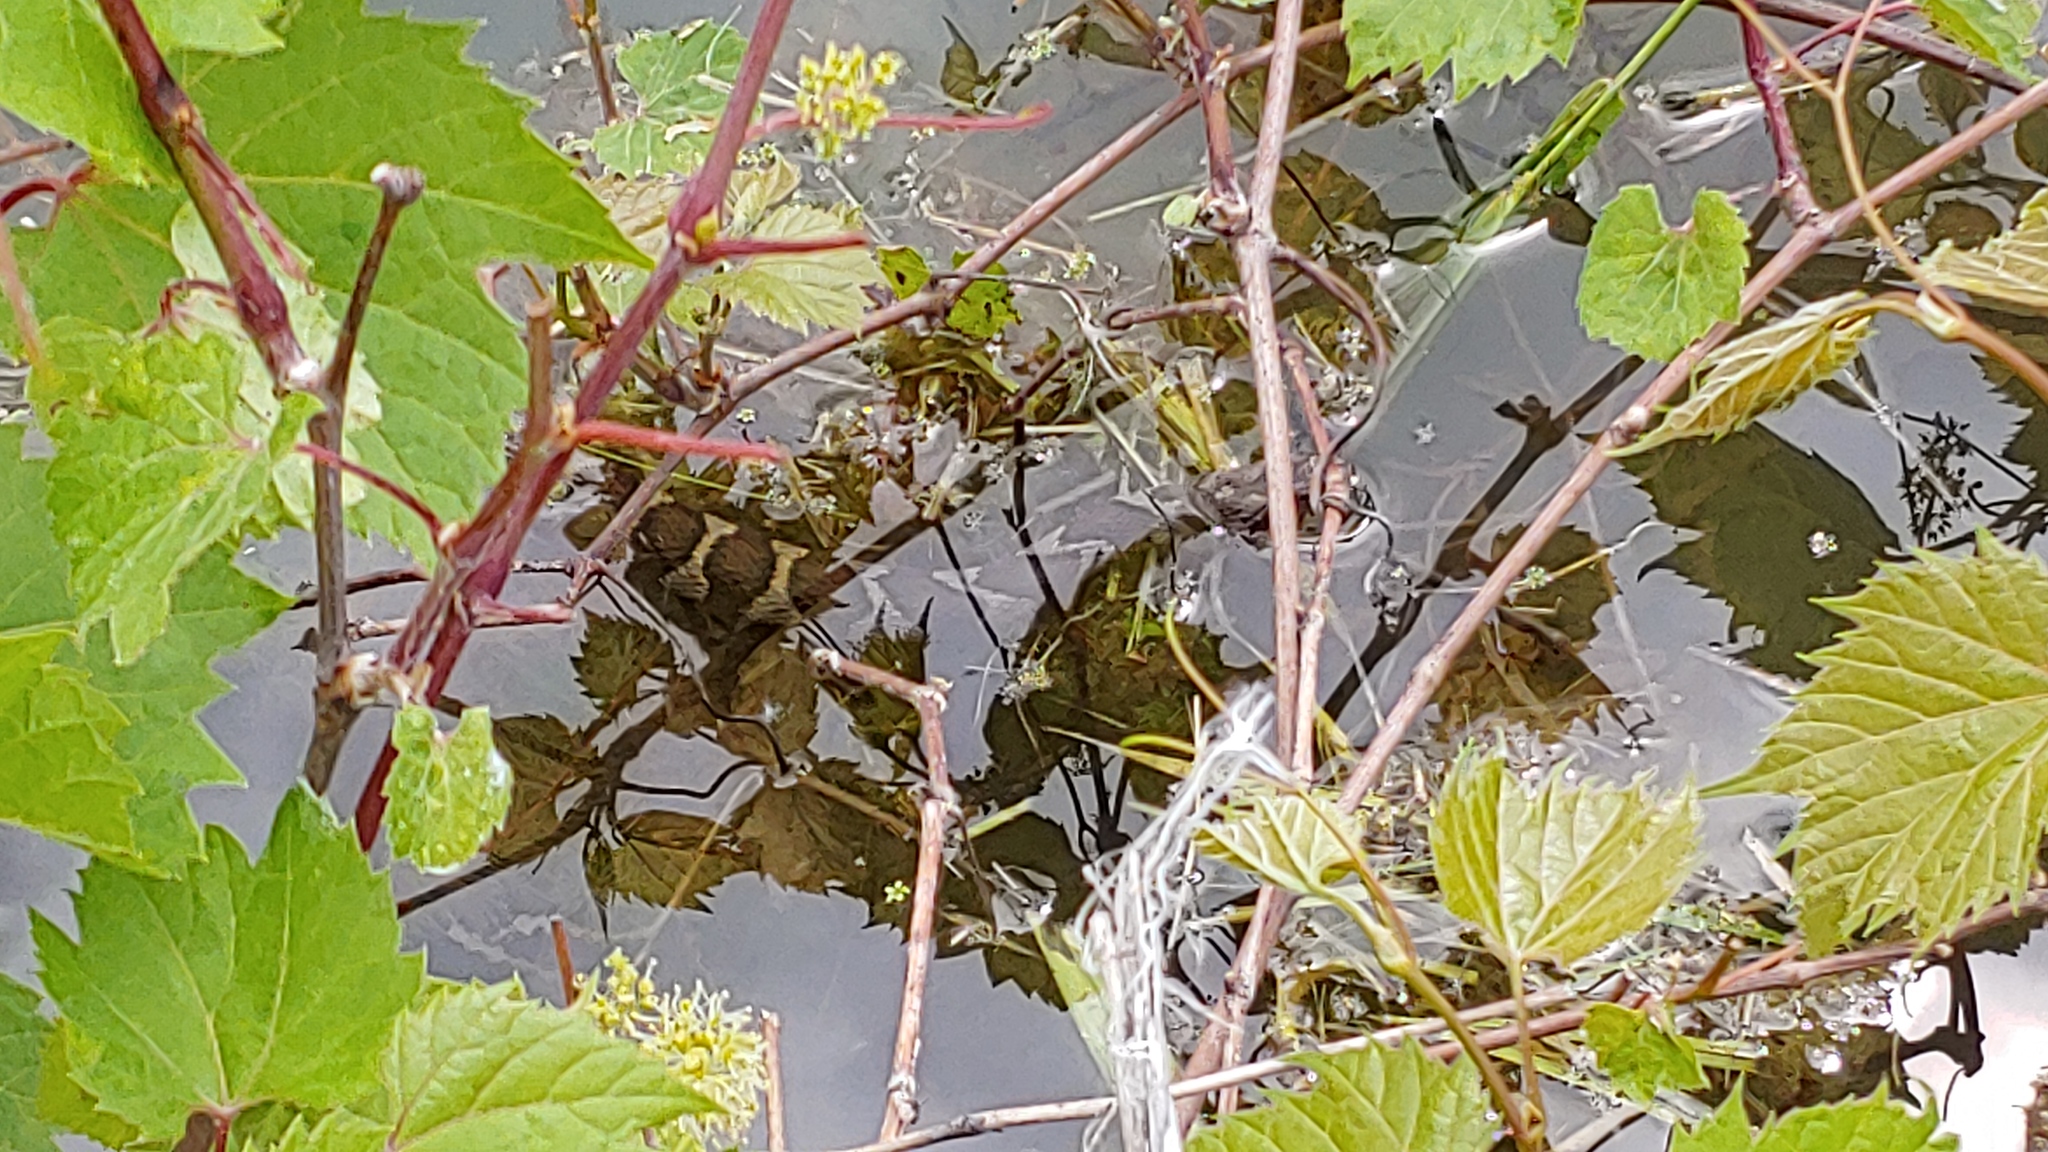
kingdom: Animalia
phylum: Chordata
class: Squamata
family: Colubridae
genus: Nerodia
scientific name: Nerodia sipedon
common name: Northern water snake
